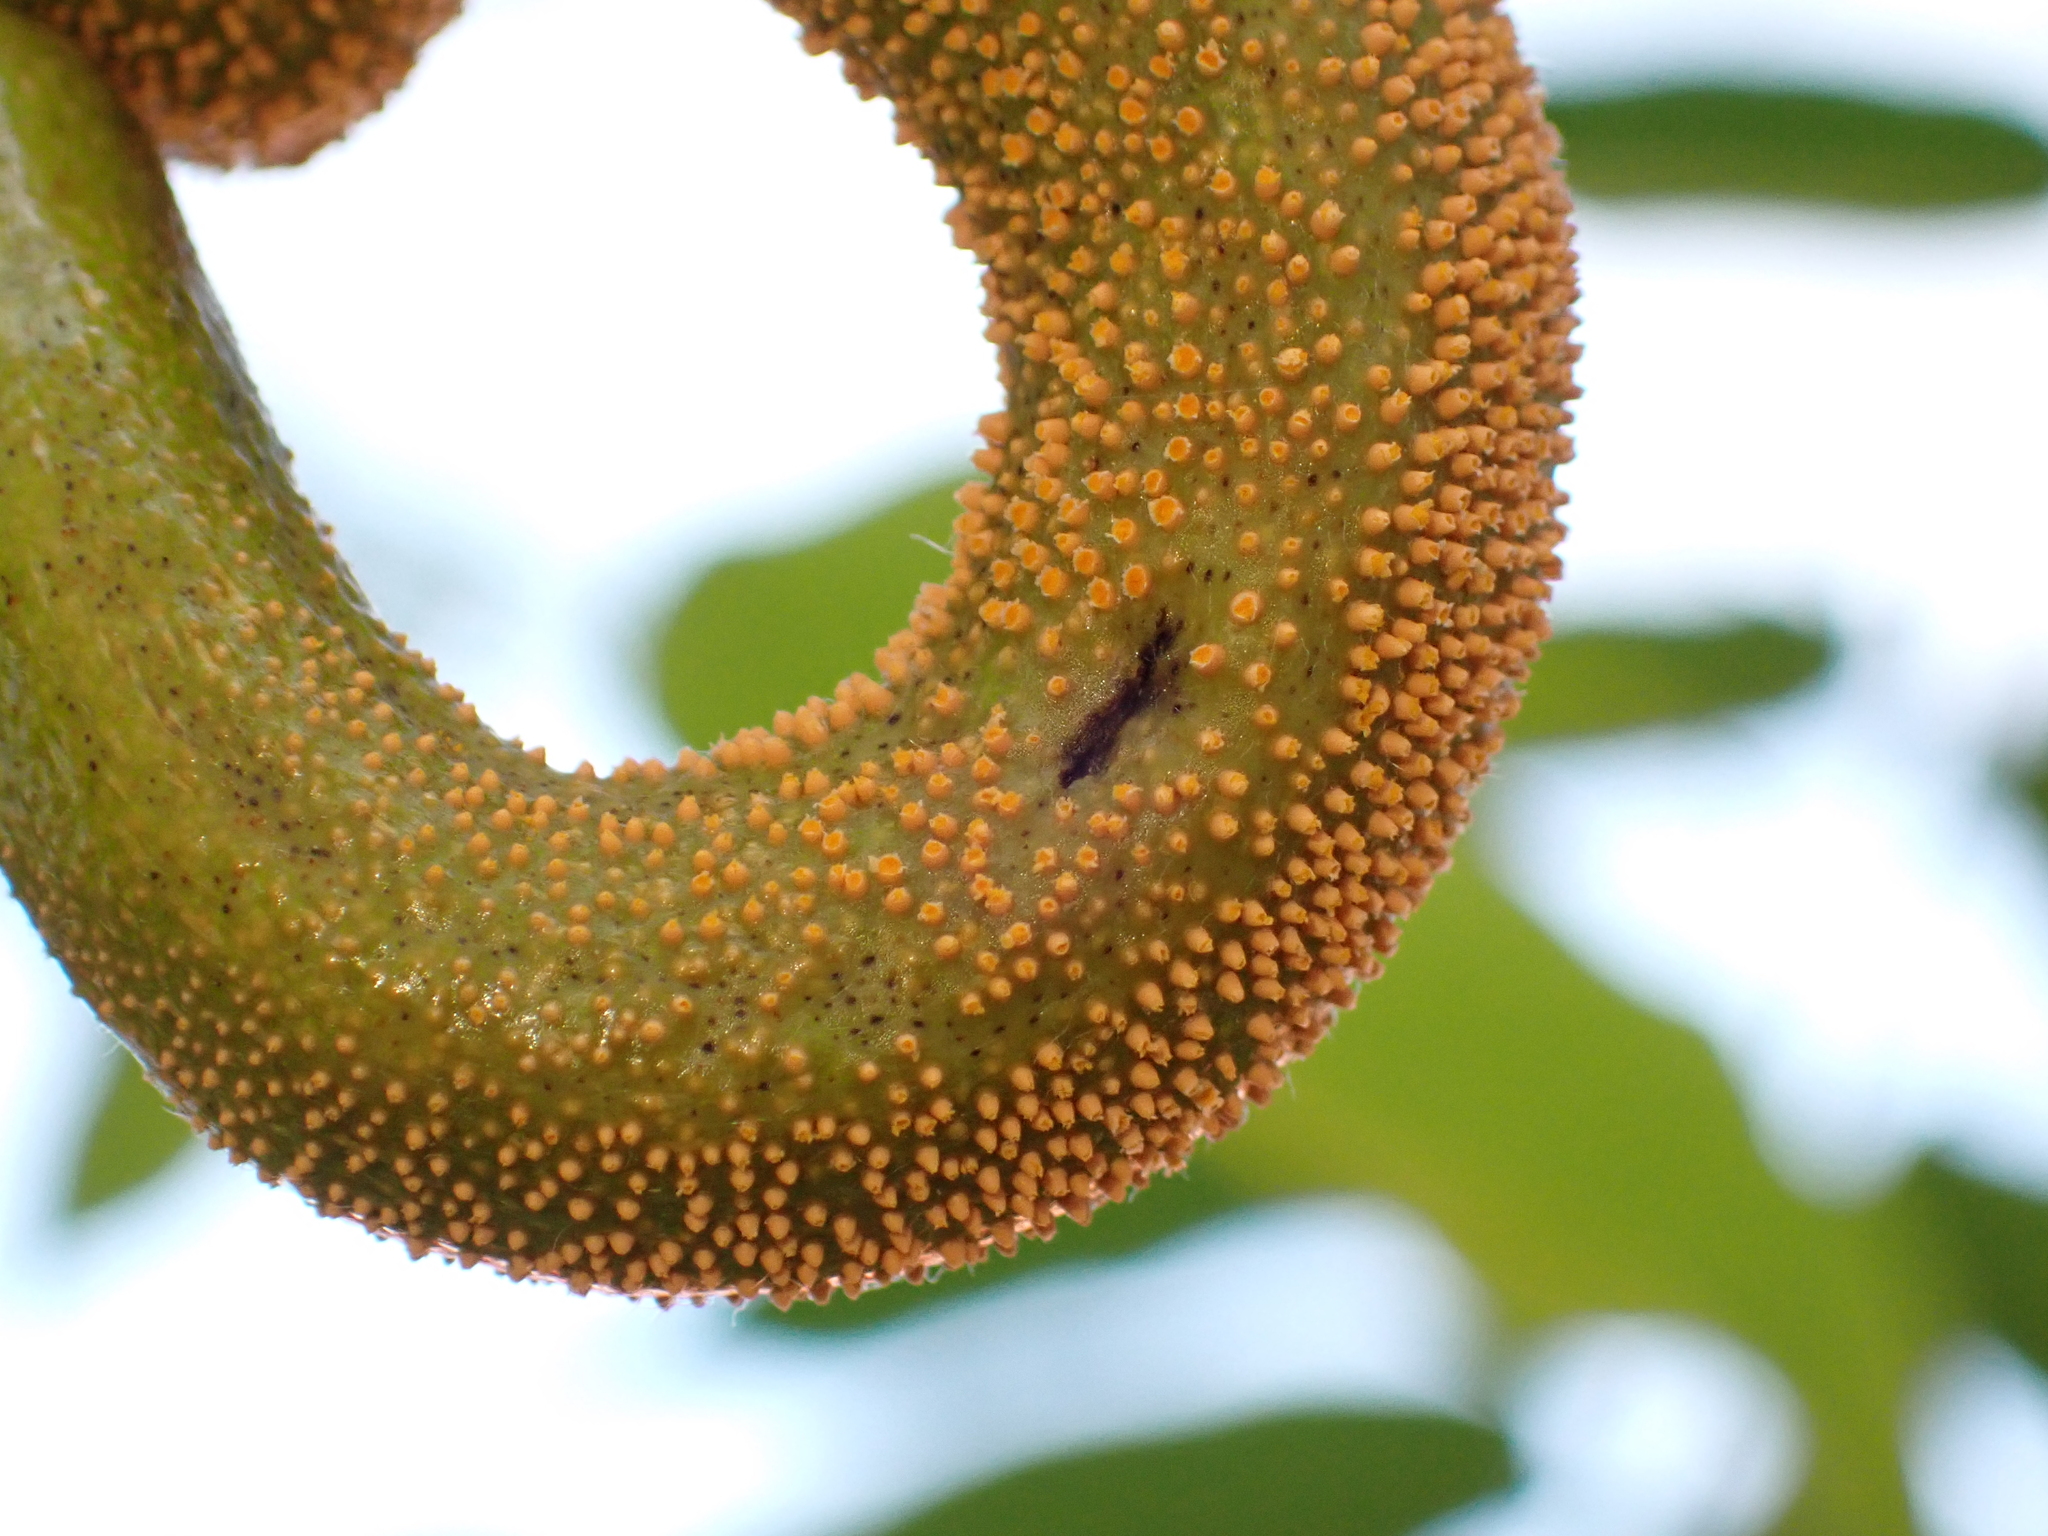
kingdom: Fungi
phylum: Basidiomycota
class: Pucciniomycetes
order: Pucciniales
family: Pucciniaceae
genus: Puccinia
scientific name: Puccinia clematidis
